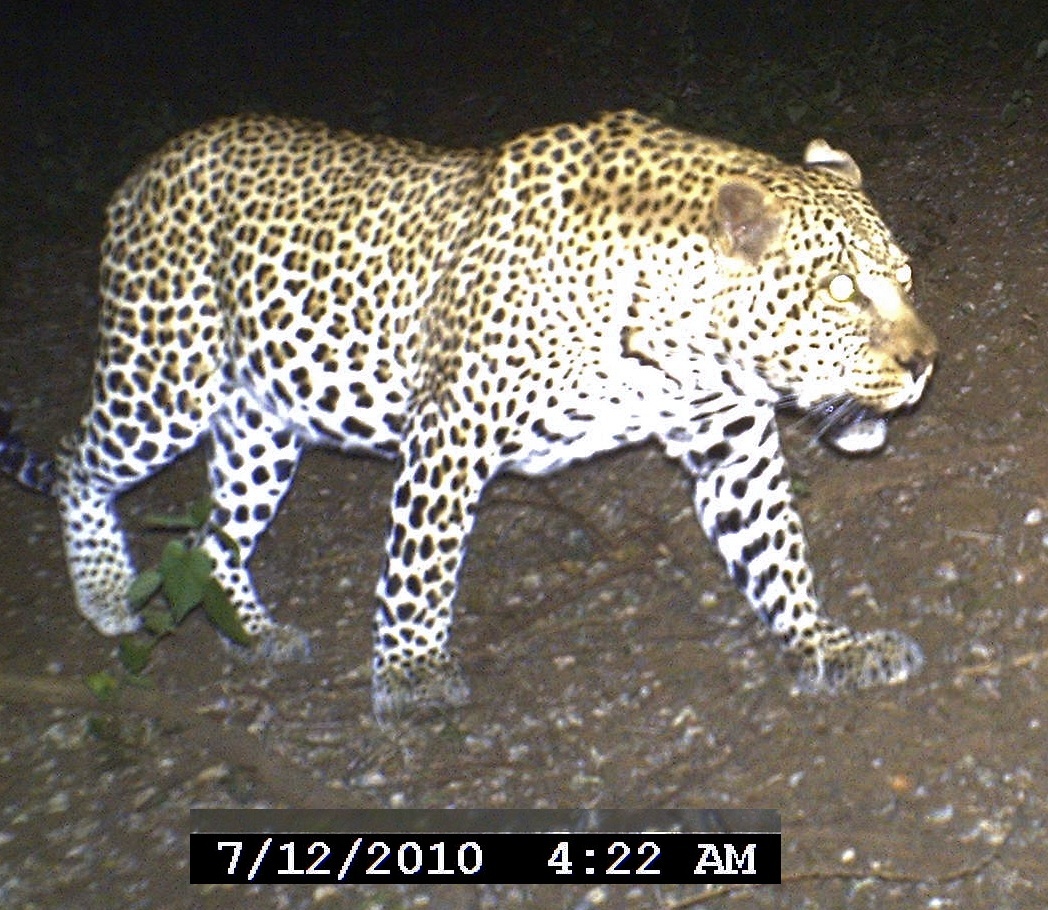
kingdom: Animalia
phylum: Chordata
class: Mammalia
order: Carnivora
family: Felidae
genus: Panthera
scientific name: Panthera pardus
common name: Leopard
